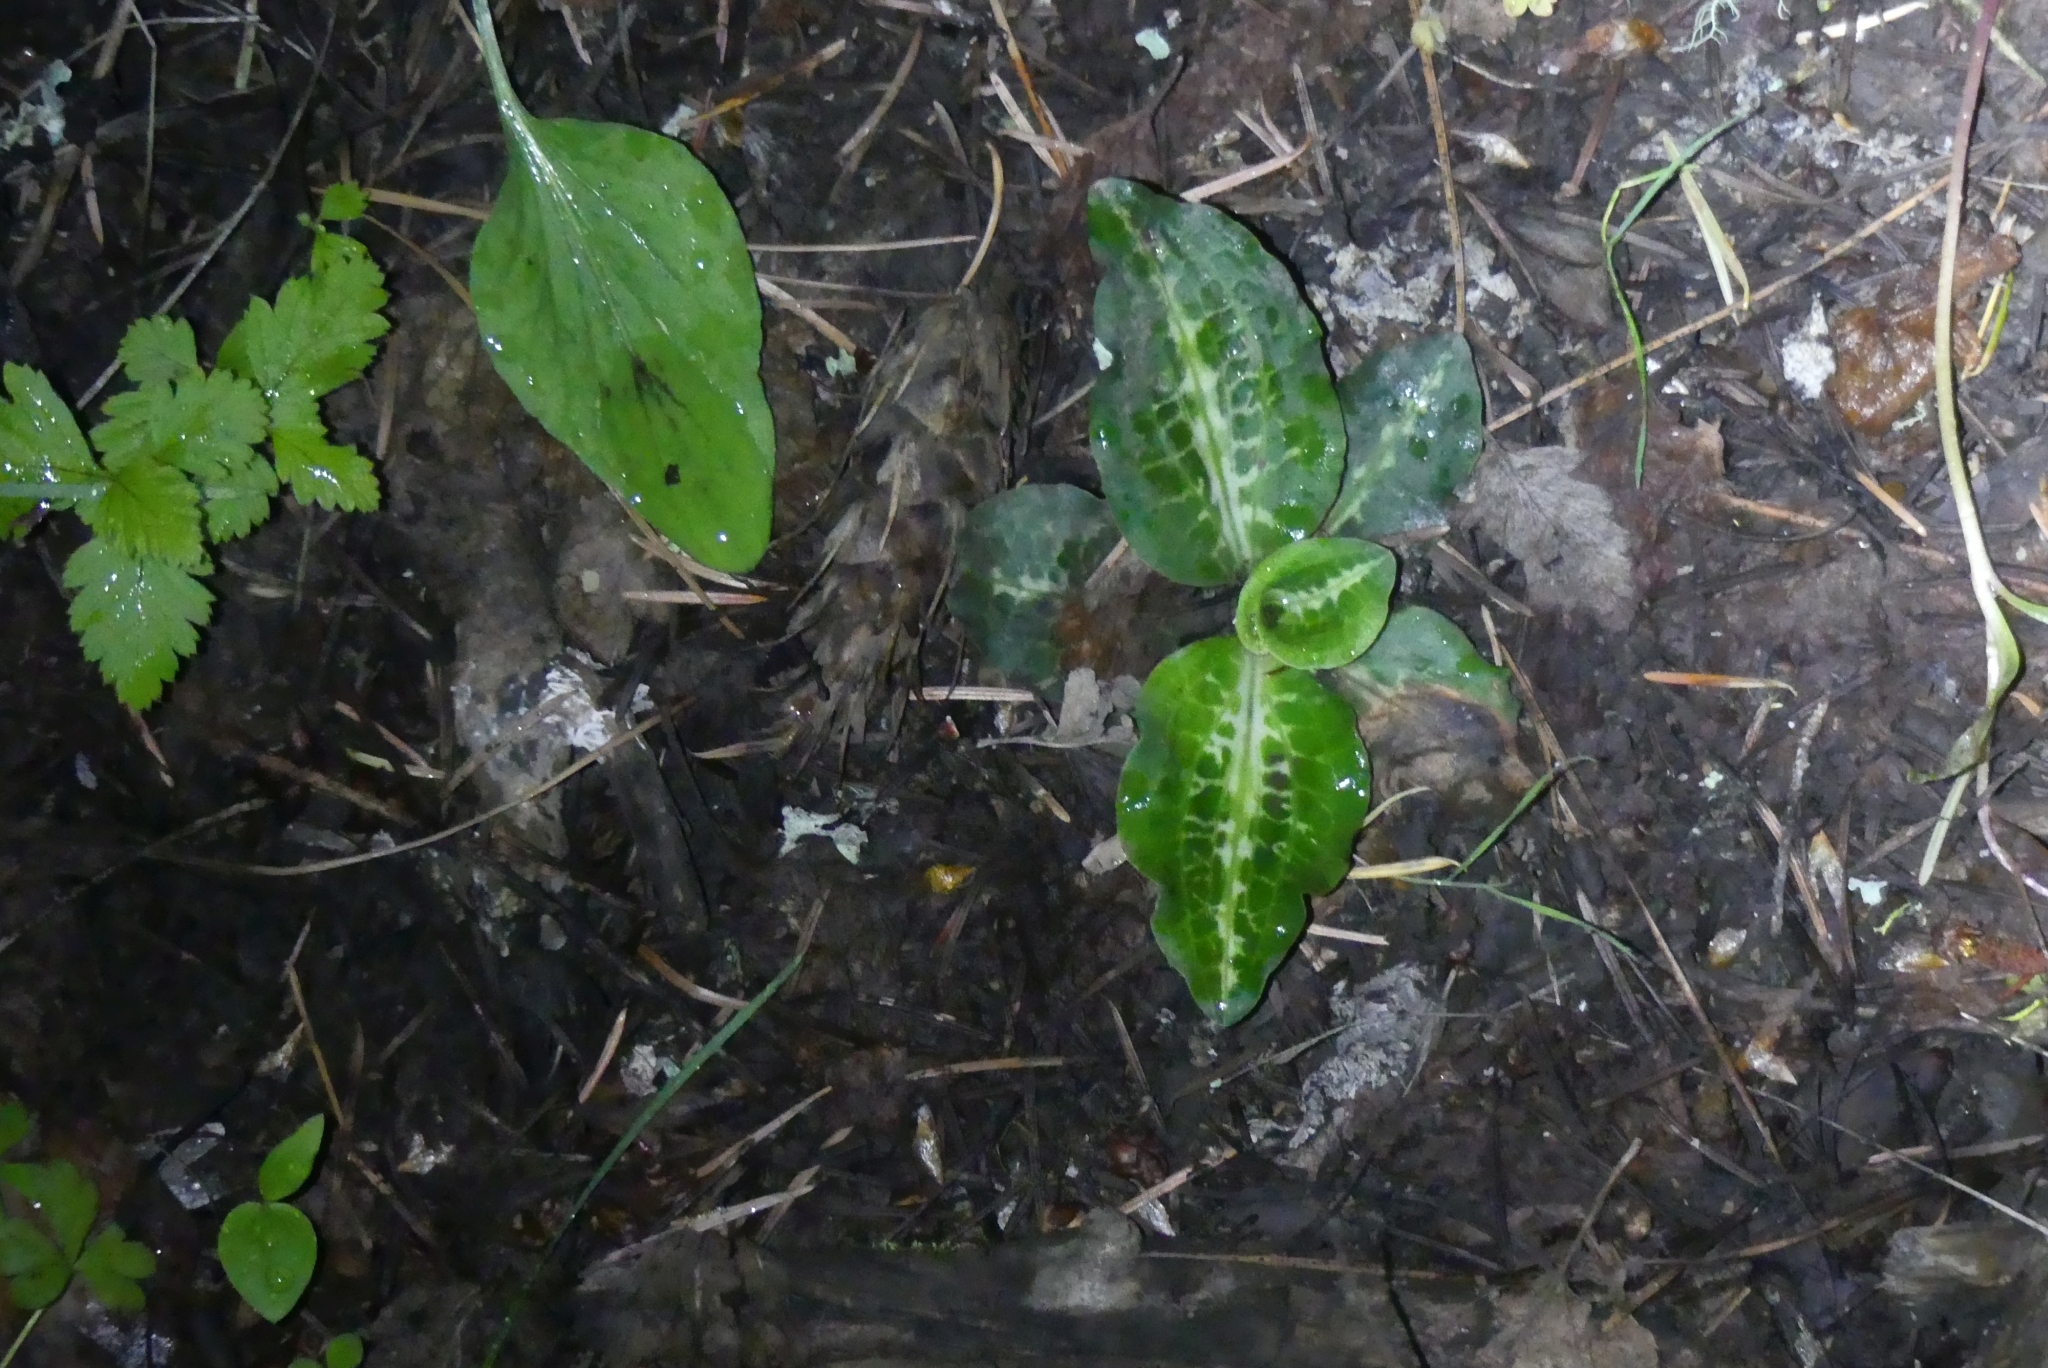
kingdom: Plantae
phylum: Tracheophyta
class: Liliopsida
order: Asparagales
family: Orchidaceae
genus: Goodyera
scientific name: Goodyera oblongifolia
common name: Giant rattlesnake-plantain
